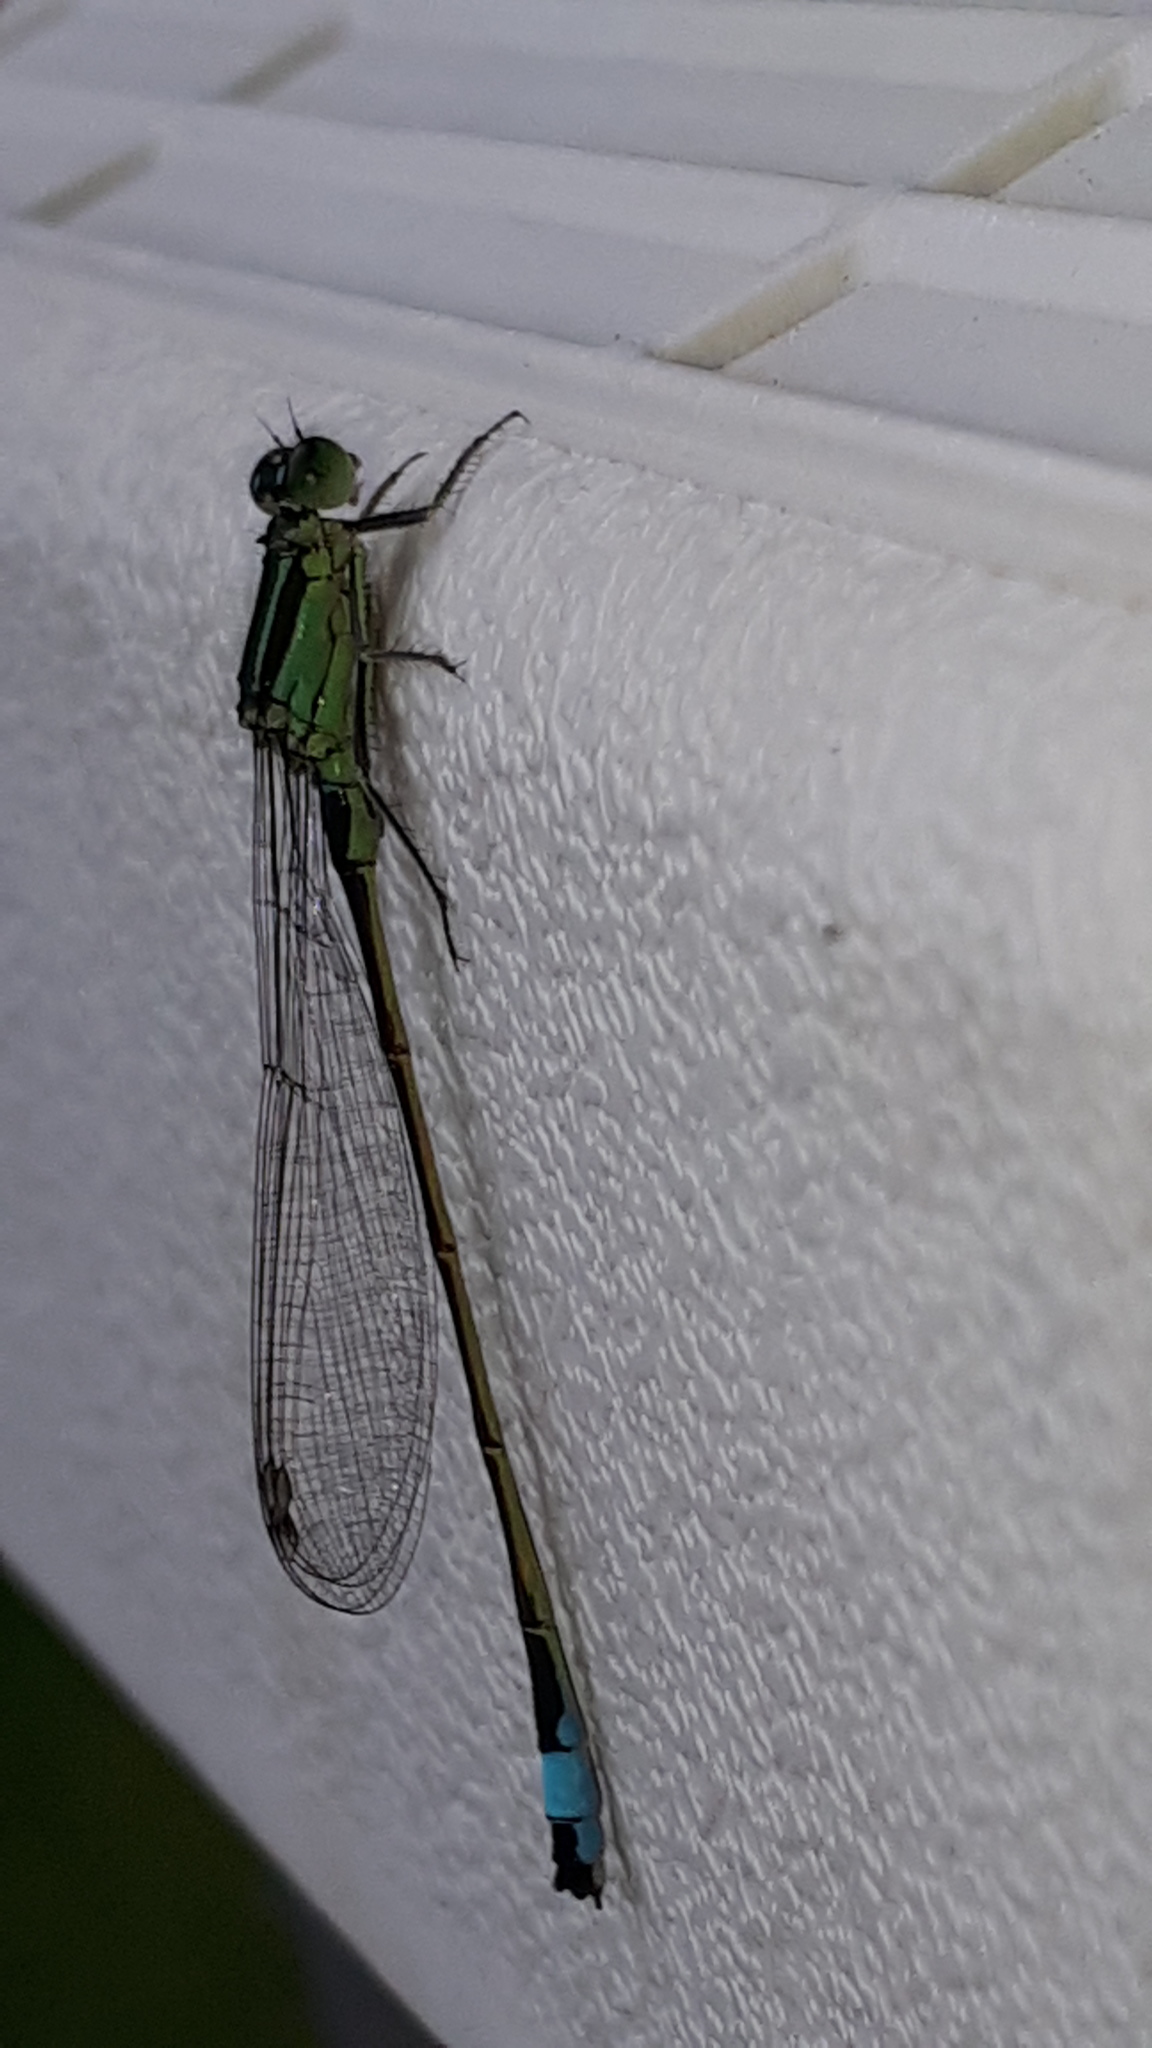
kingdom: Animalia
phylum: Arthropoda
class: Insecta
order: Odonata
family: Coenagrionidae
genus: Ischnura
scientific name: Ischnura elegans
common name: Blue-tailed damselfly
